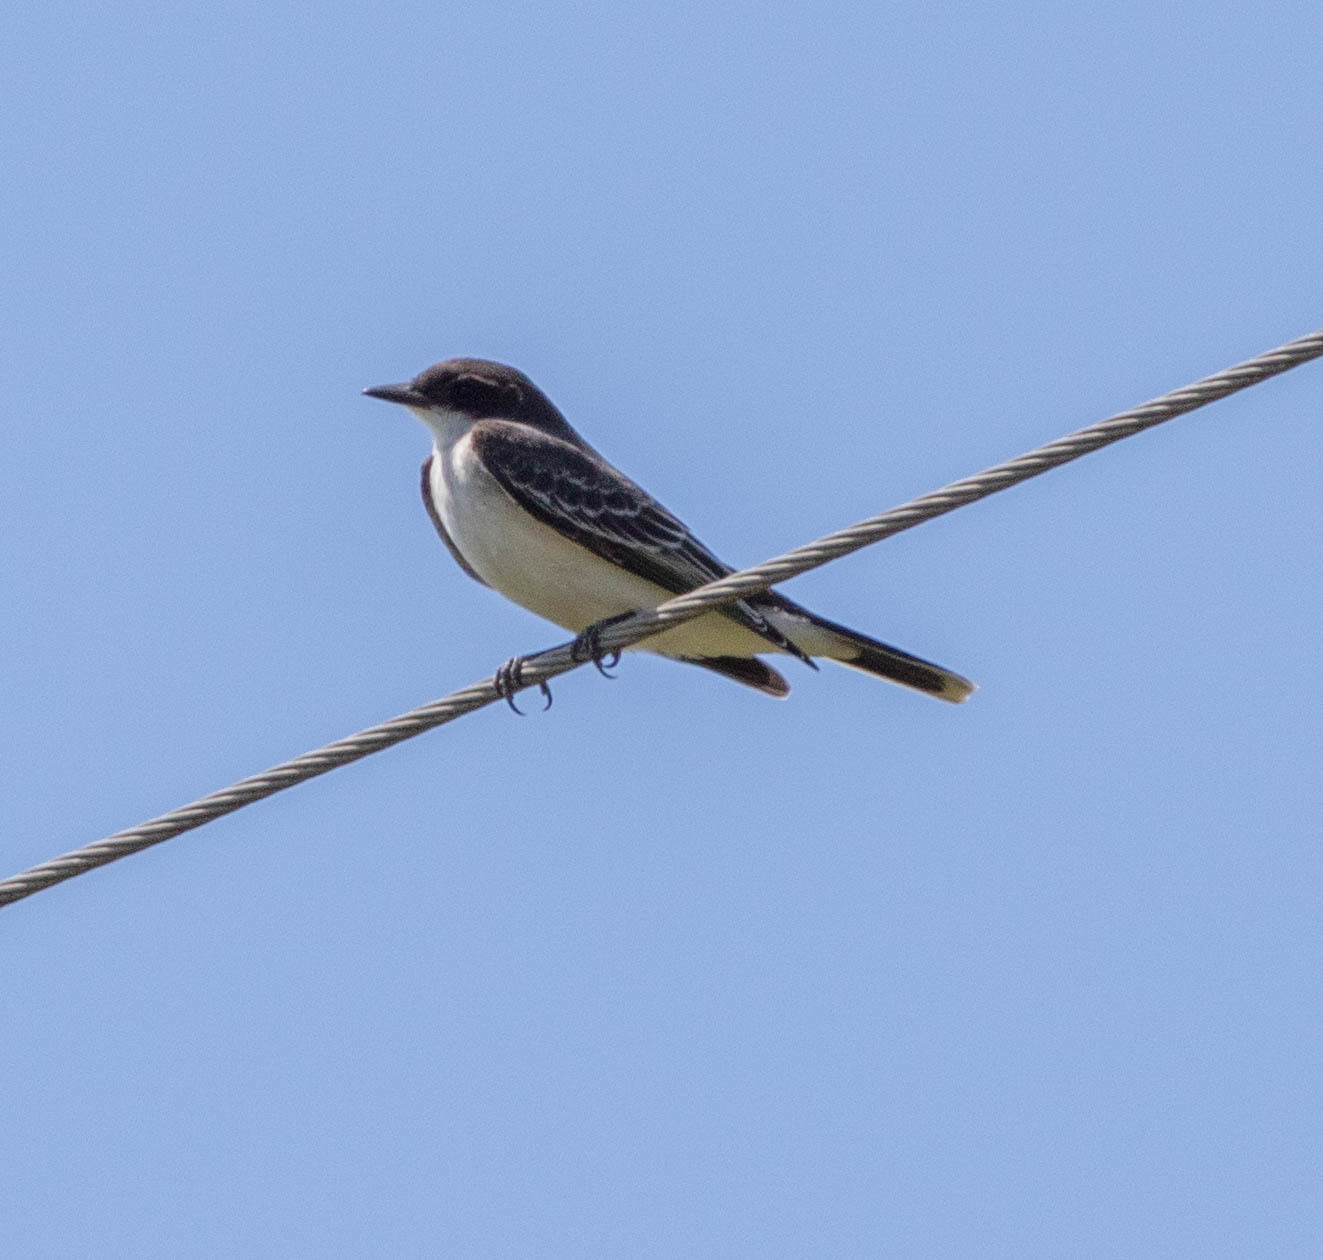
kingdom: Animalia
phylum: Chordata
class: Aves
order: Passeriformes
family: Tyrannidae
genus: Tyrannus
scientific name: Tyrannus tyrannus
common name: Eastern kingbird
